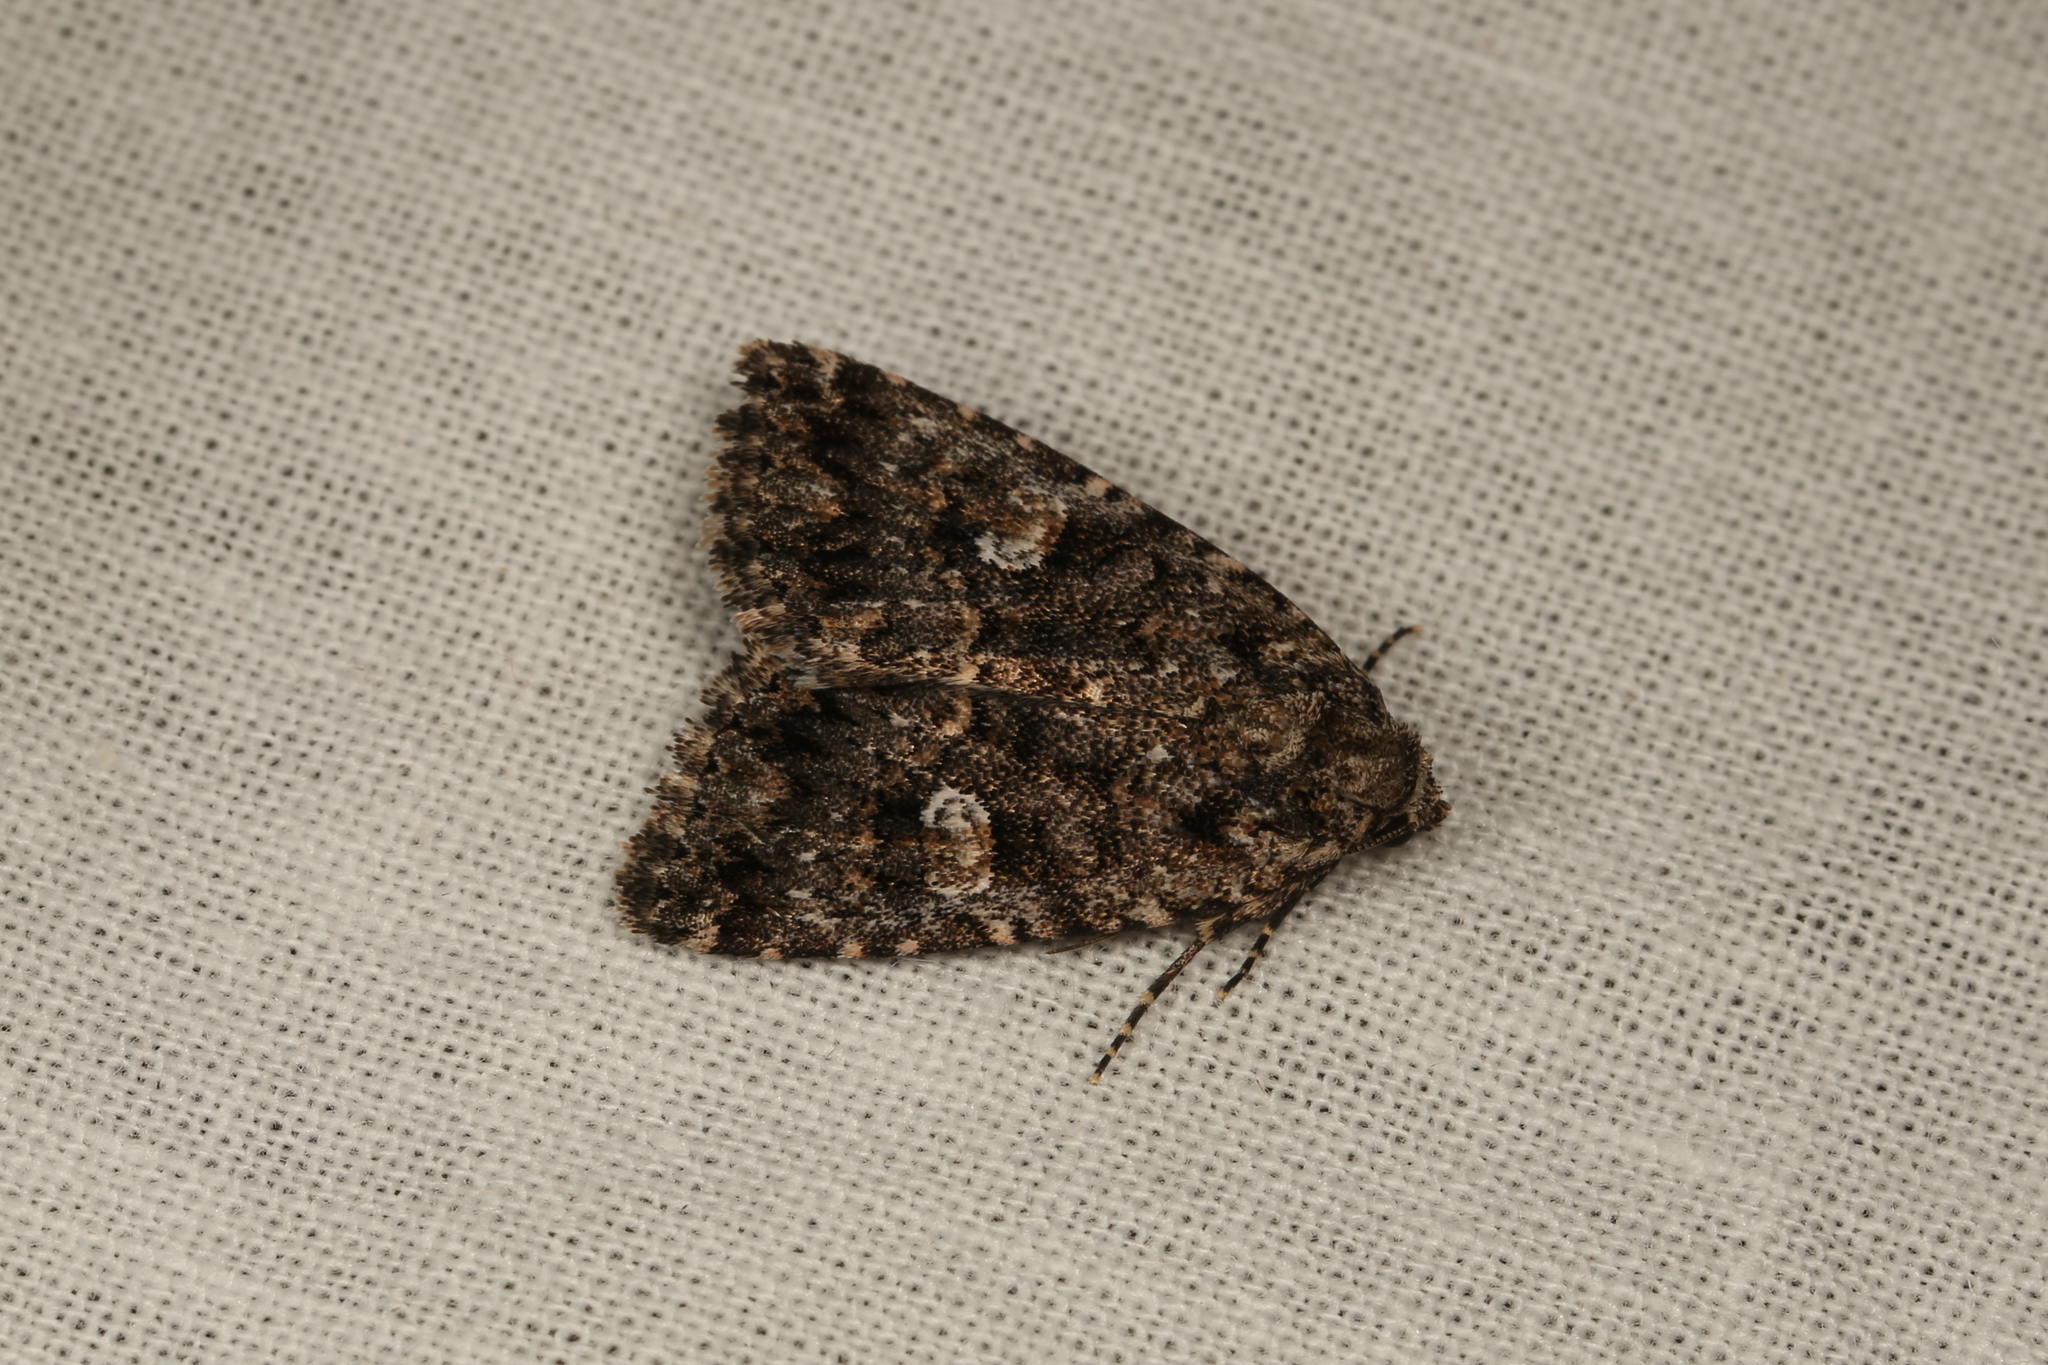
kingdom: Animalia
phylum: Arthropoda
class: Insecta
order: Lepidoptera
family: Noctuidae
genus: Condica
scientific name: Condica aroana
